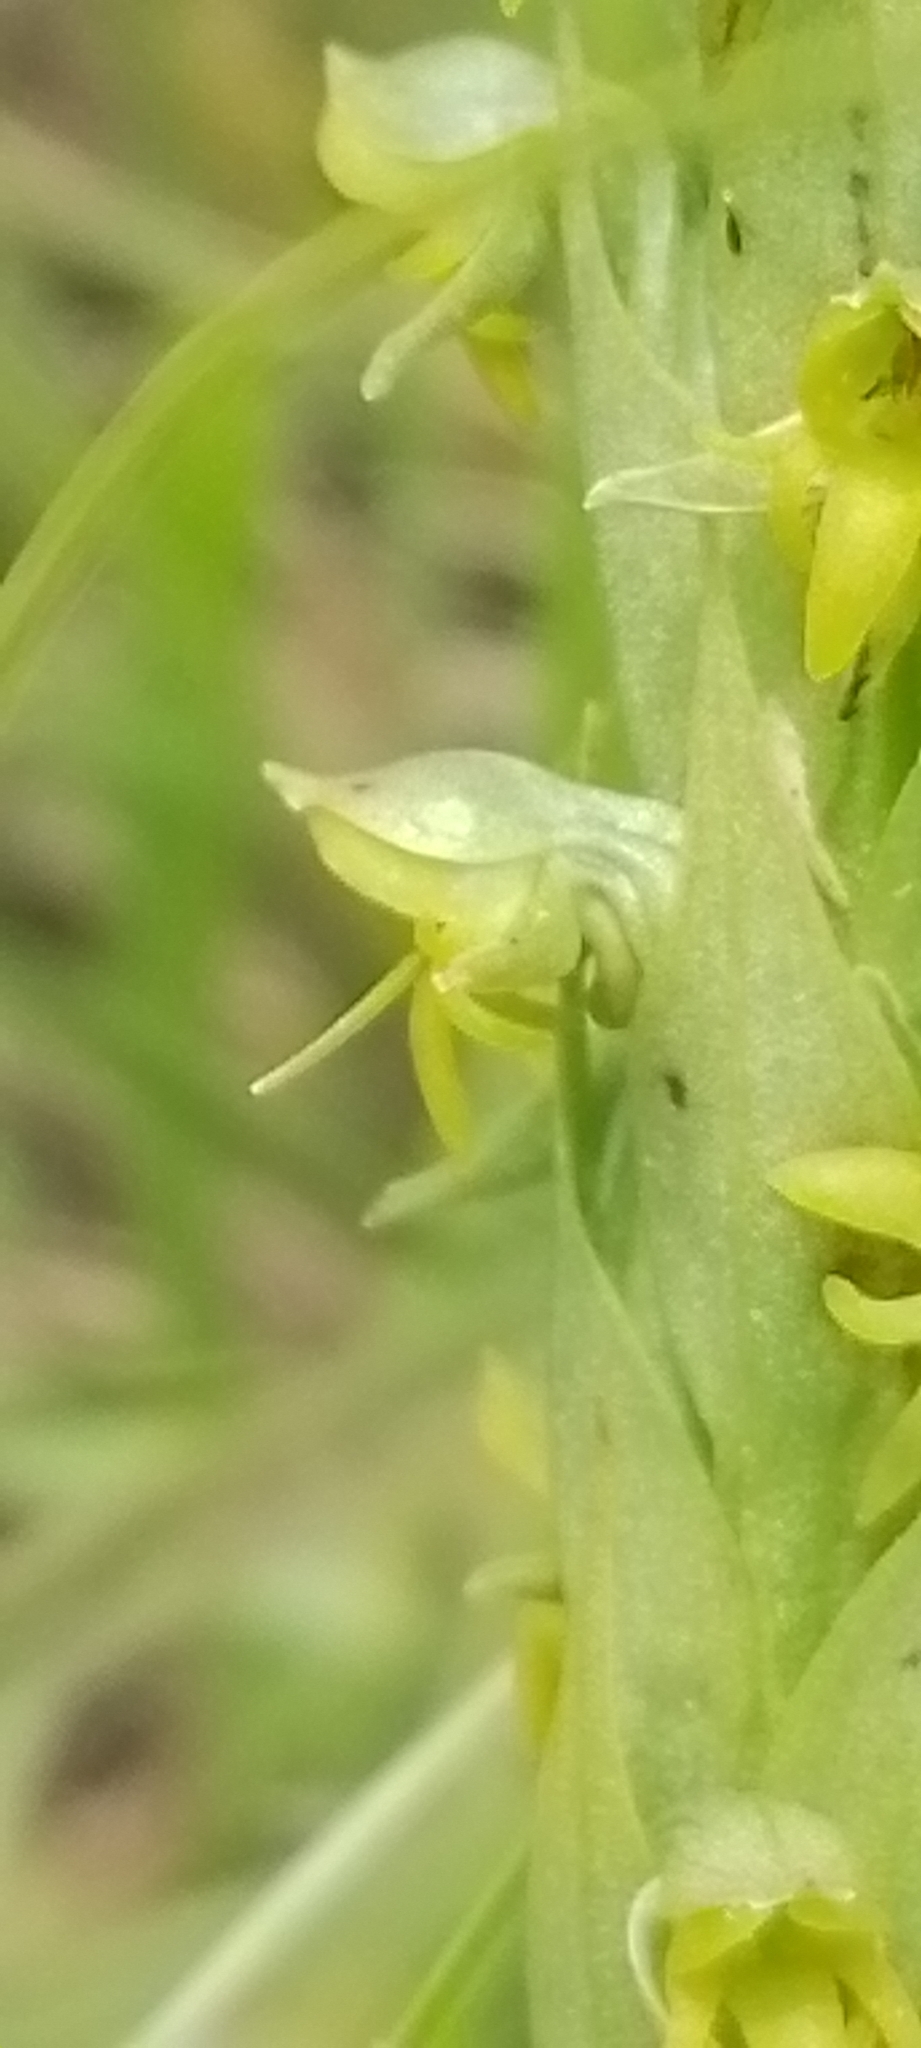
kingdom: Plantae
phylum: Tracheophyta
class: Liliopsida
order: Asparagales
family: Orchidaceae
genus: Habenaria
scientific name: Habenaria parviflora
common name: Small flowered habenaria
